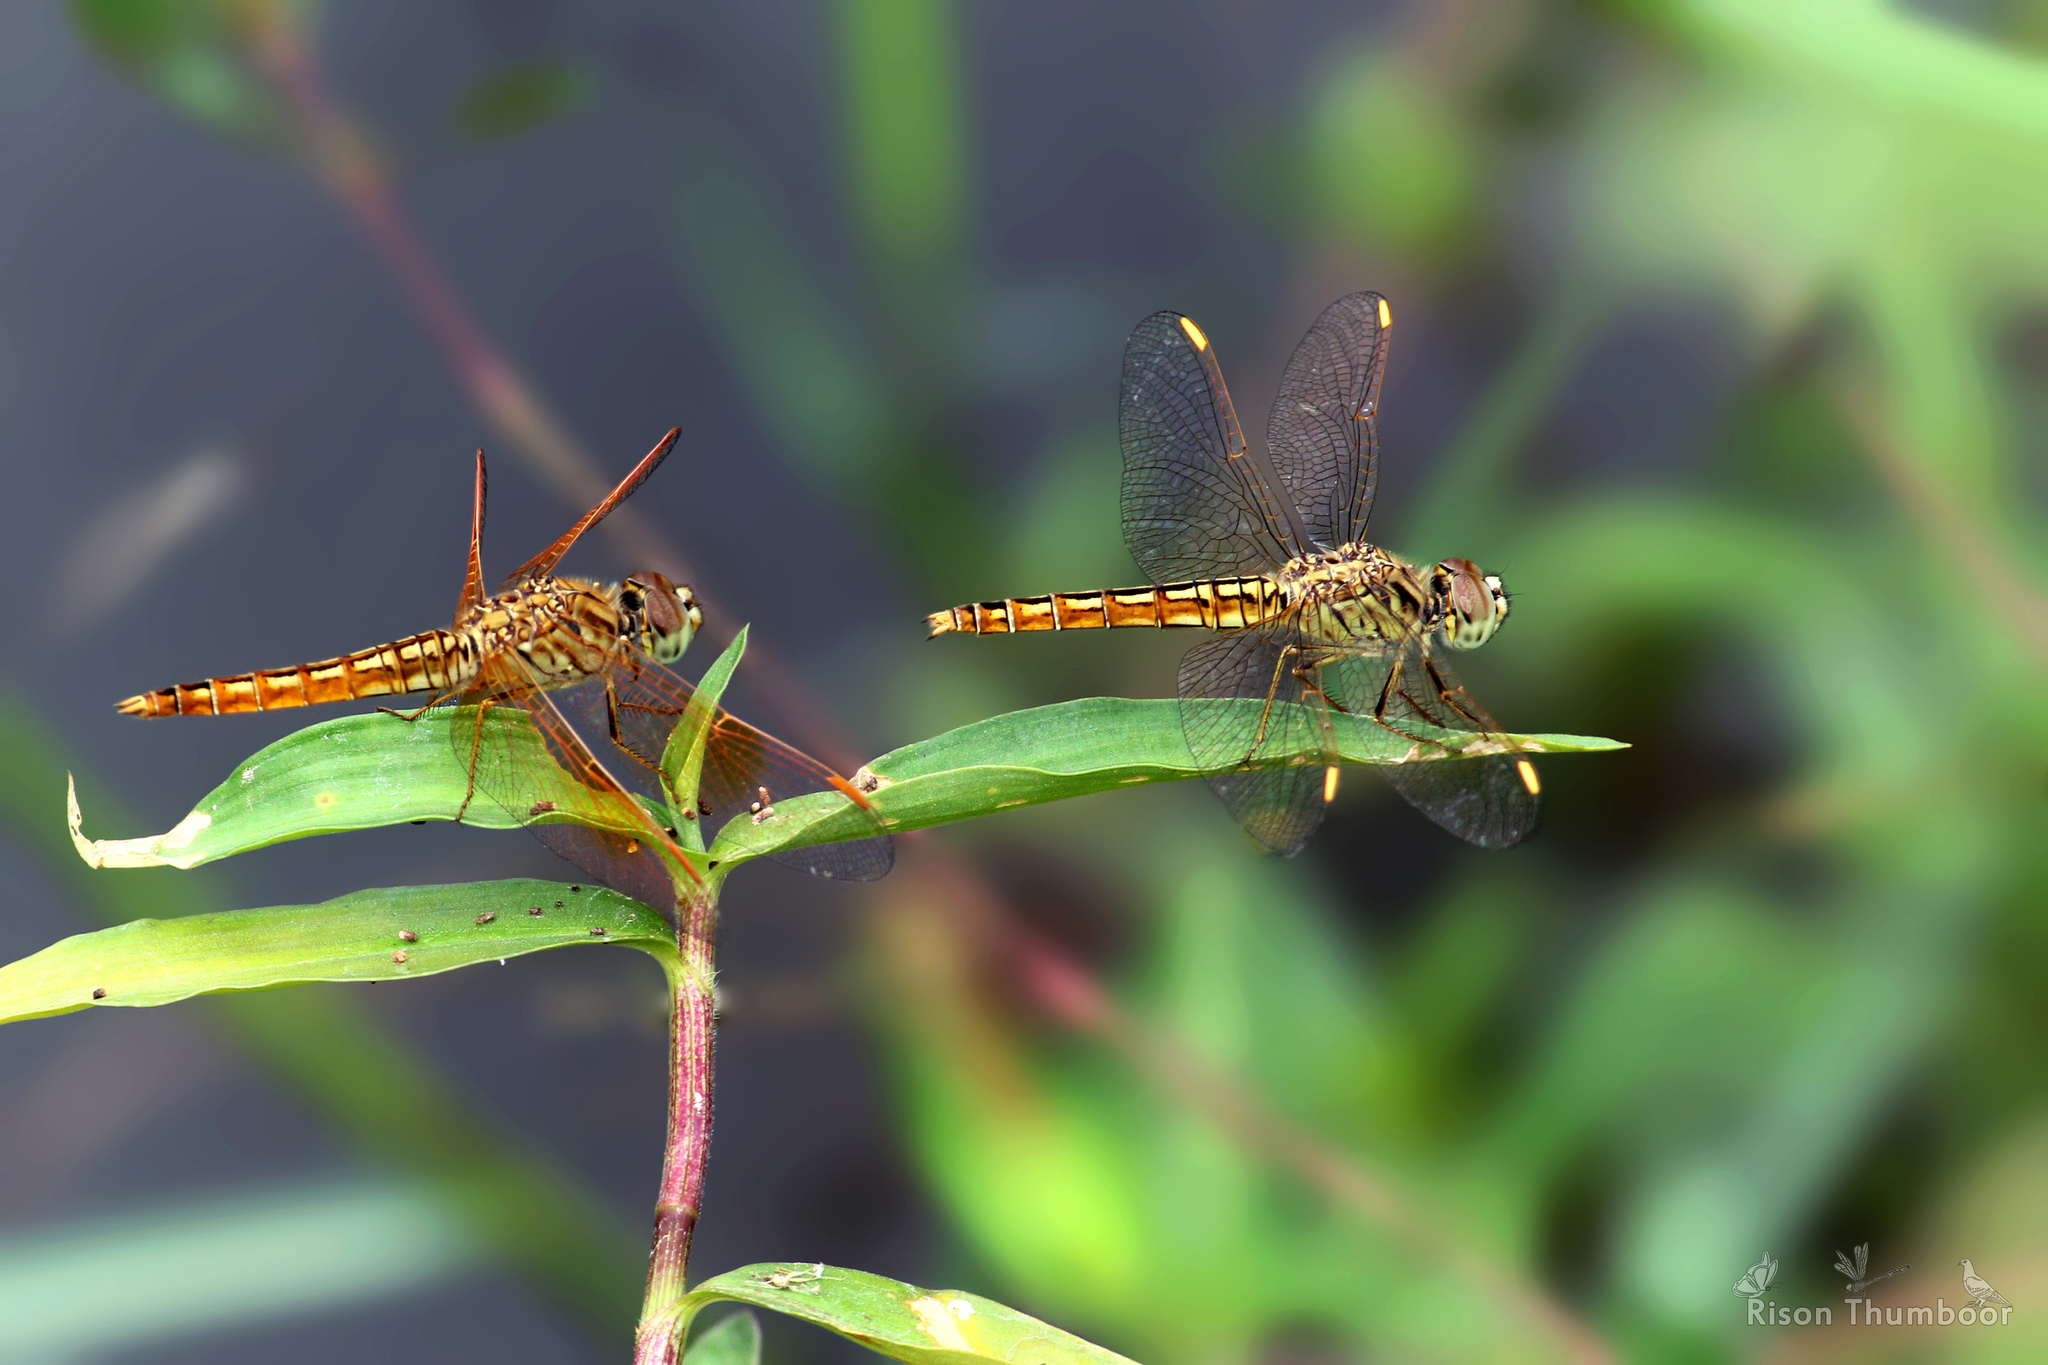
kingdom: Animalia
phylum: Arthropoda
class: Insecta
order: Odonata
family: Libellulidae
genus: Brachythemis
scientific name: Brachythemis contaminata
